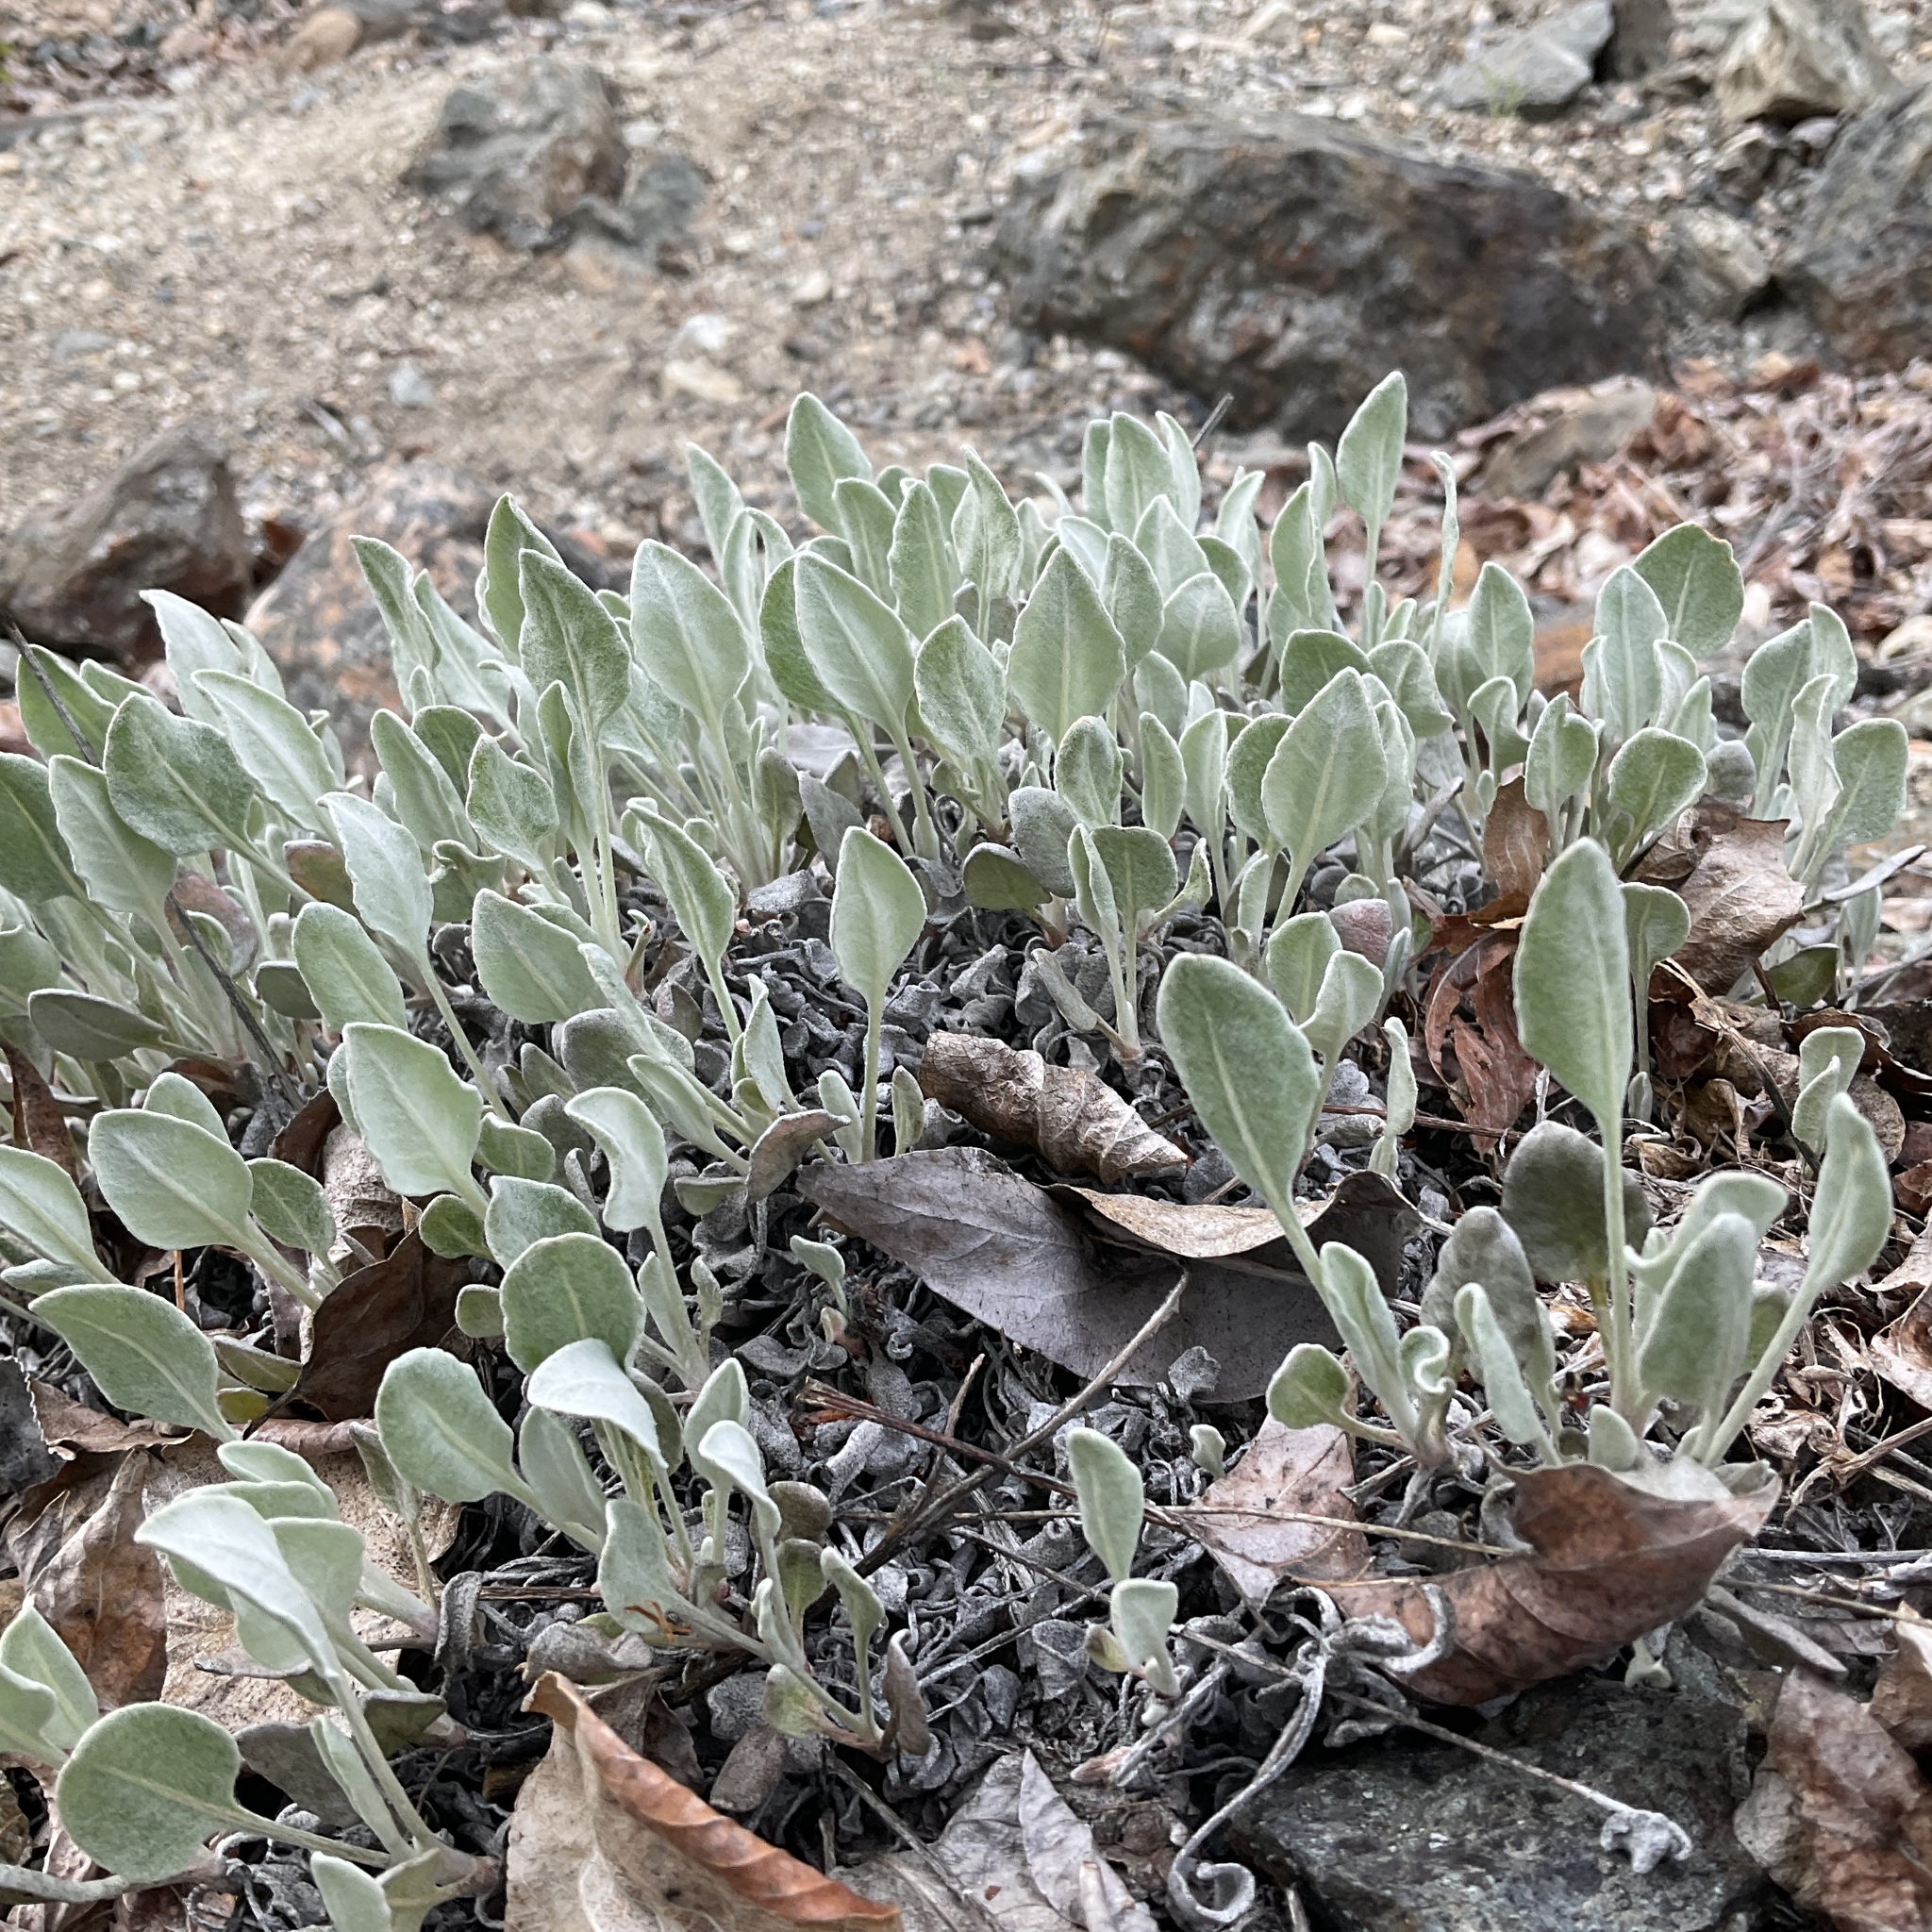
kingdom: Plantae
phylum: Tracheophyta
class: Magnoliopsida
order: Caryophyllales
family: Polygonaceae
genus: Eriogonum
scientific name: Eriogonum niveum
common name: Snow wild buckwheat
